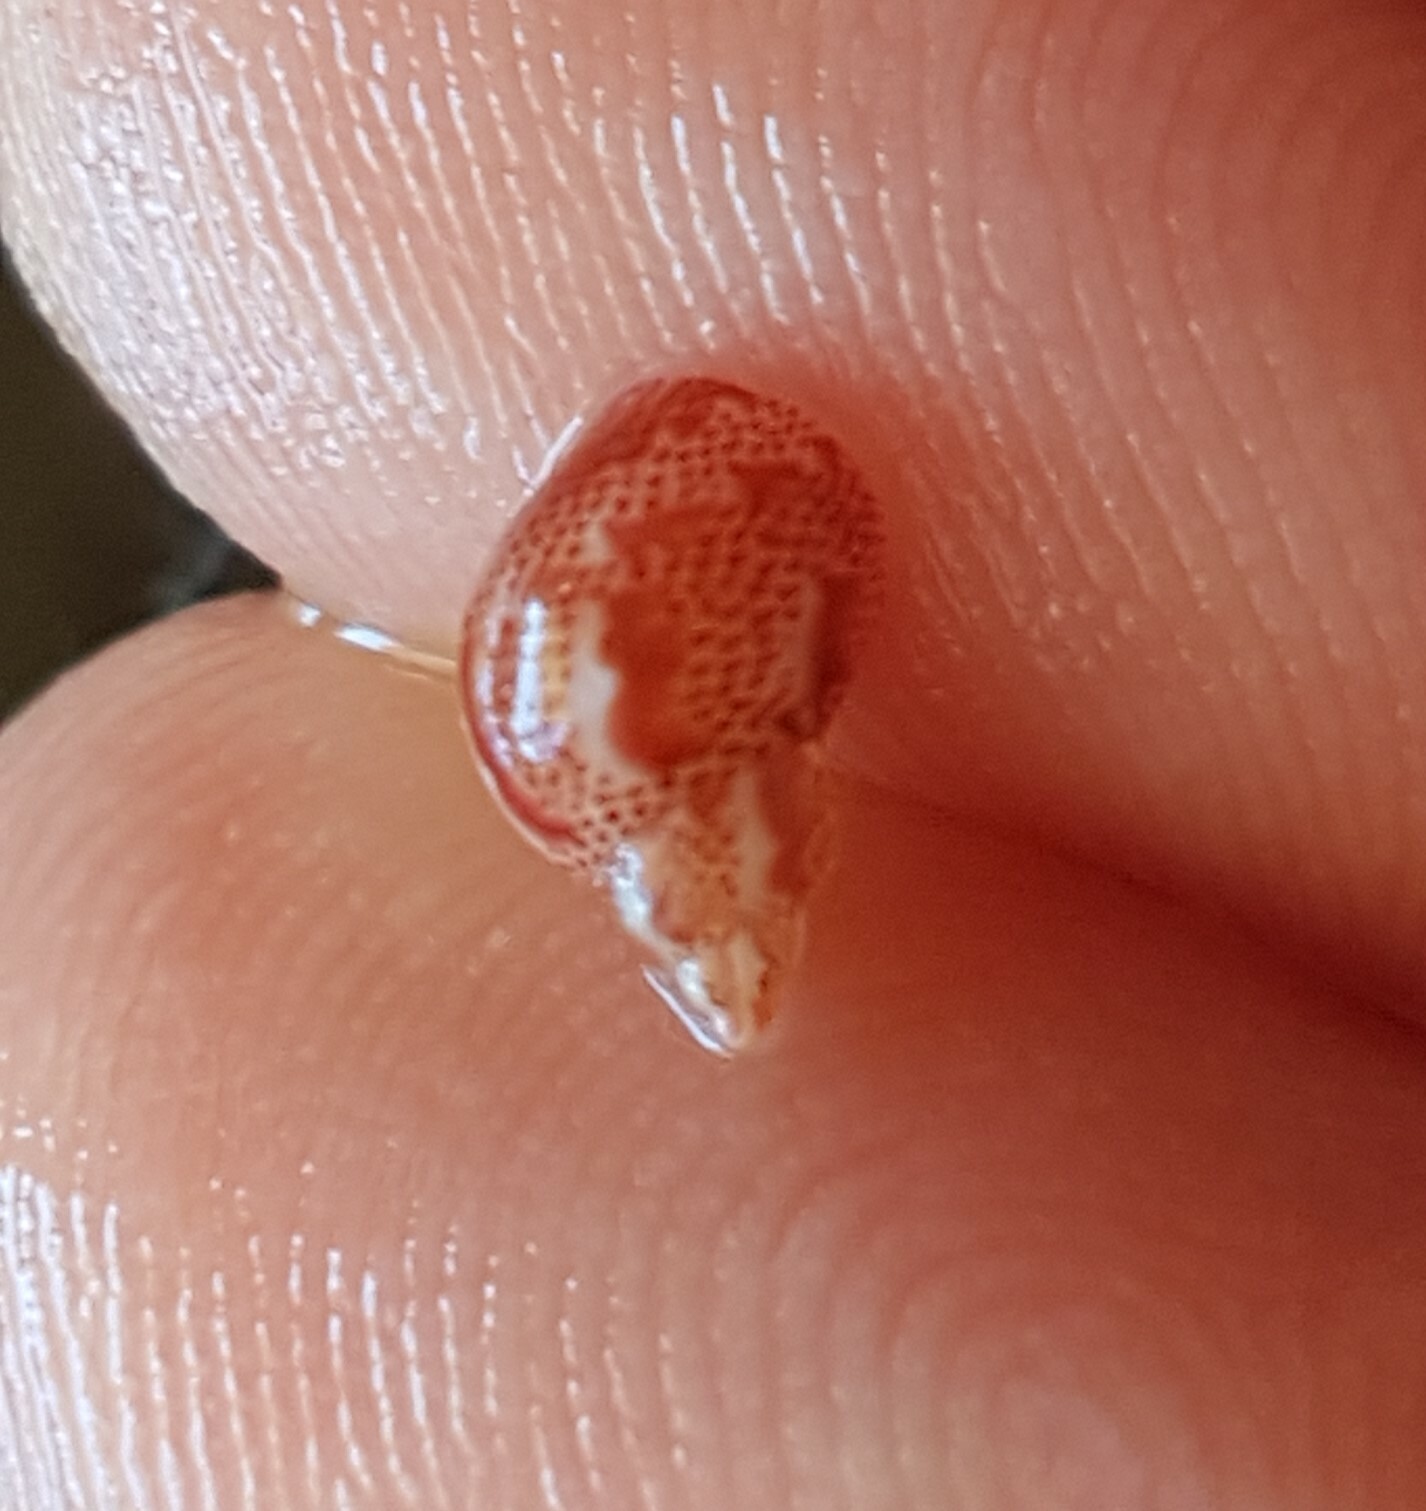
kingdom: Animalia
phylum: Mollusca
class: Gastropoda
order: Trochida
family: Phasianellidae
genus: Tricolia
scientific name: Tricolia pullus
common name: Pheasant shell
